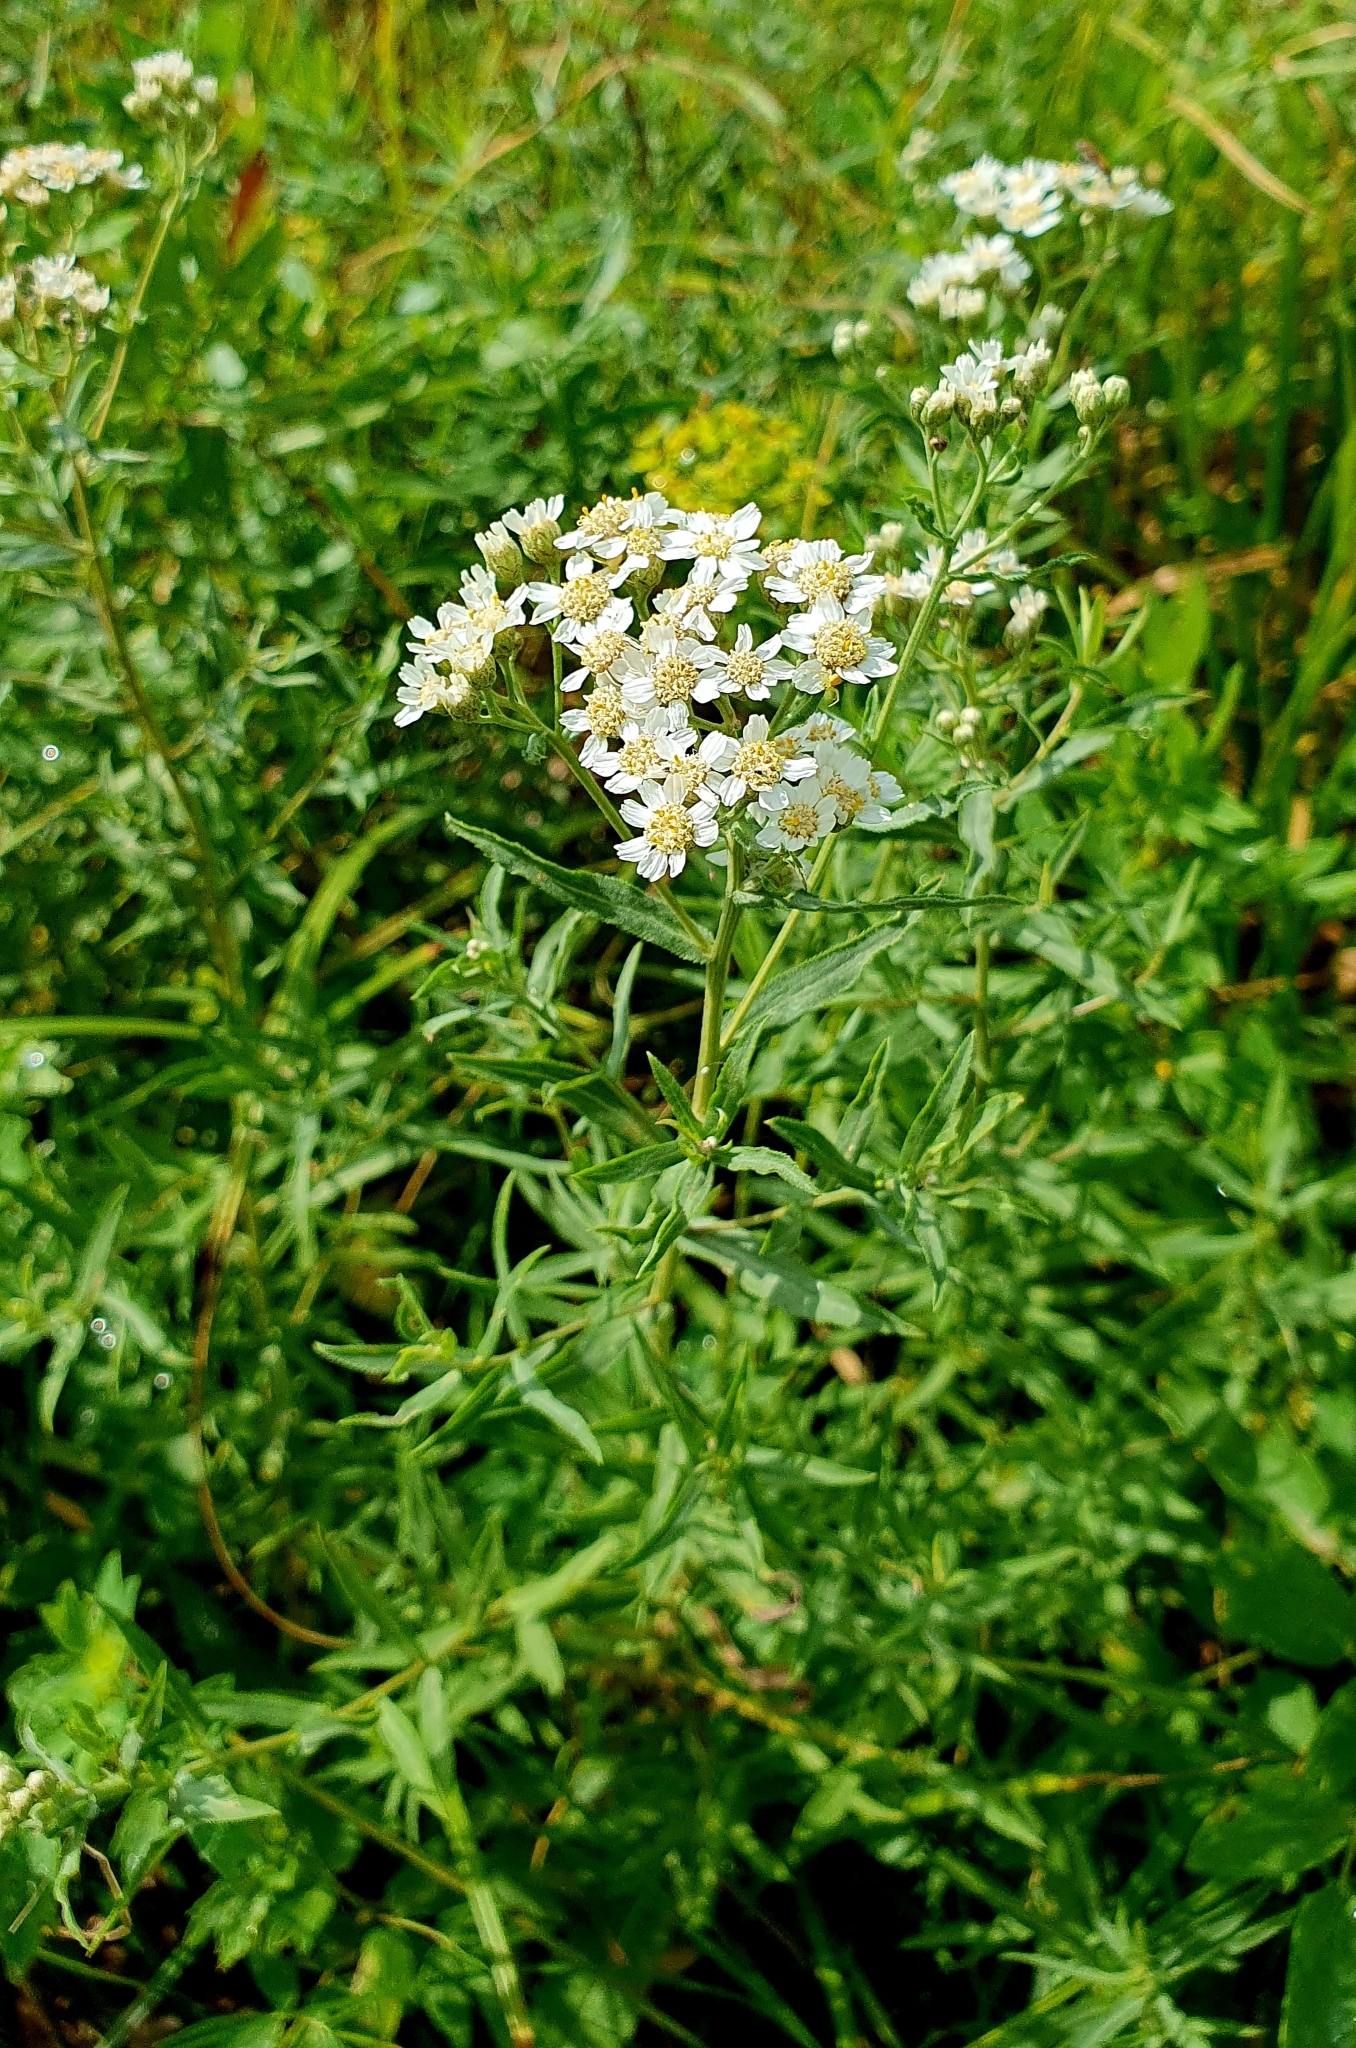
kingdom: Plantae
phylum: Tracheophyta
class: Magnoliopsida
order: Asterales
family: Asteraceae
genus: Achillea
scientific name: Achillea salicifolia
